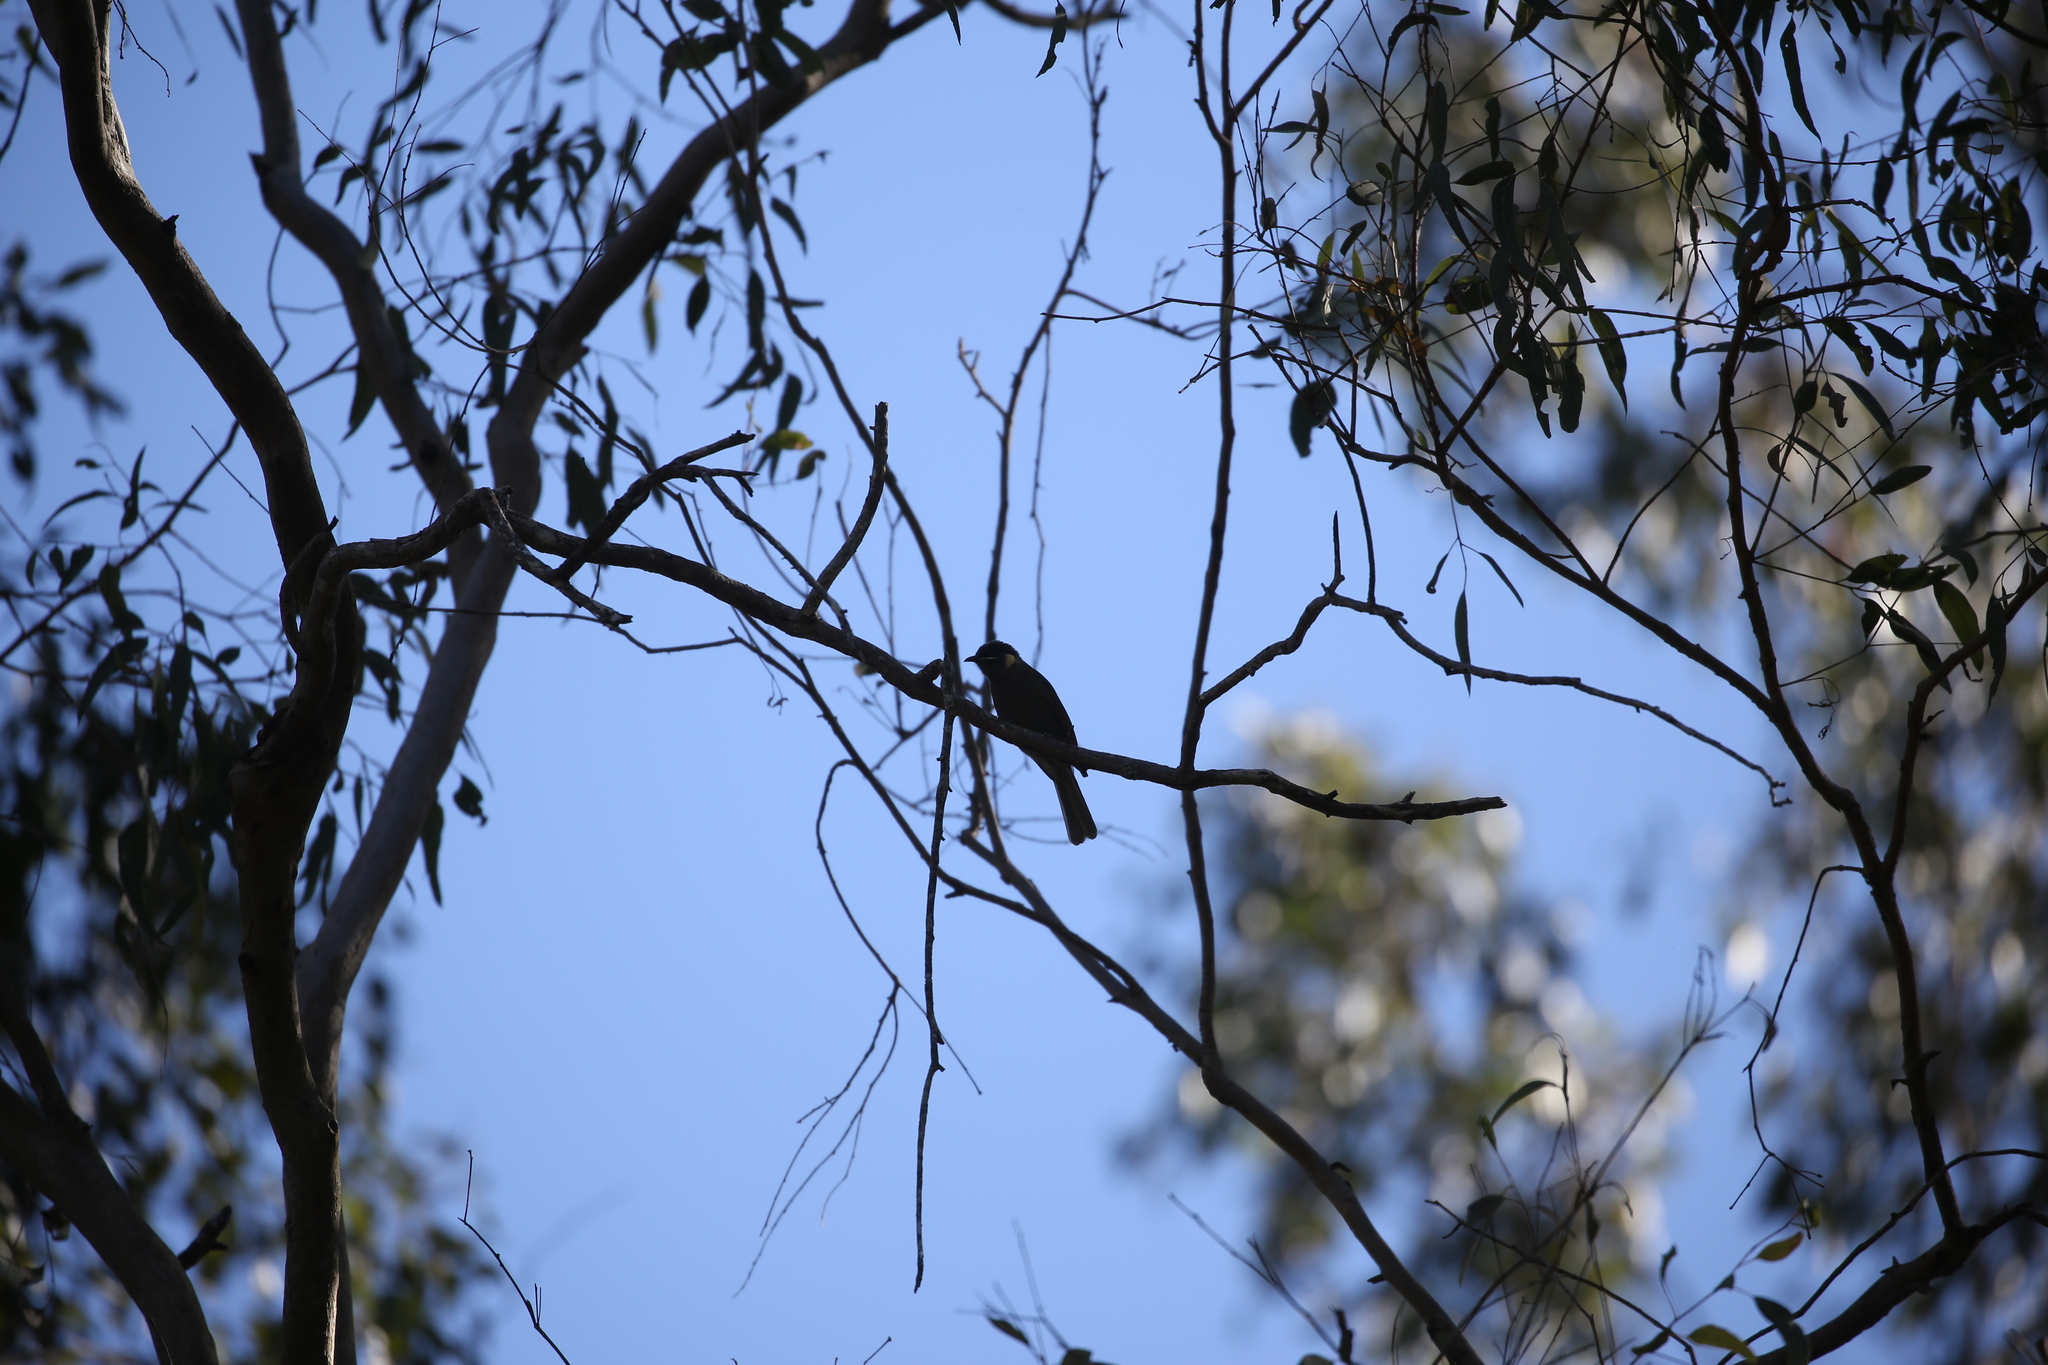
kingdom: Animalia
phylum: Chordata
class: Aves
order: Passeriformes
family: Meliphagidae
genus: Meliphaga
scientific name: Meliphaga lewinii
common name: Lewin's honeyeater
